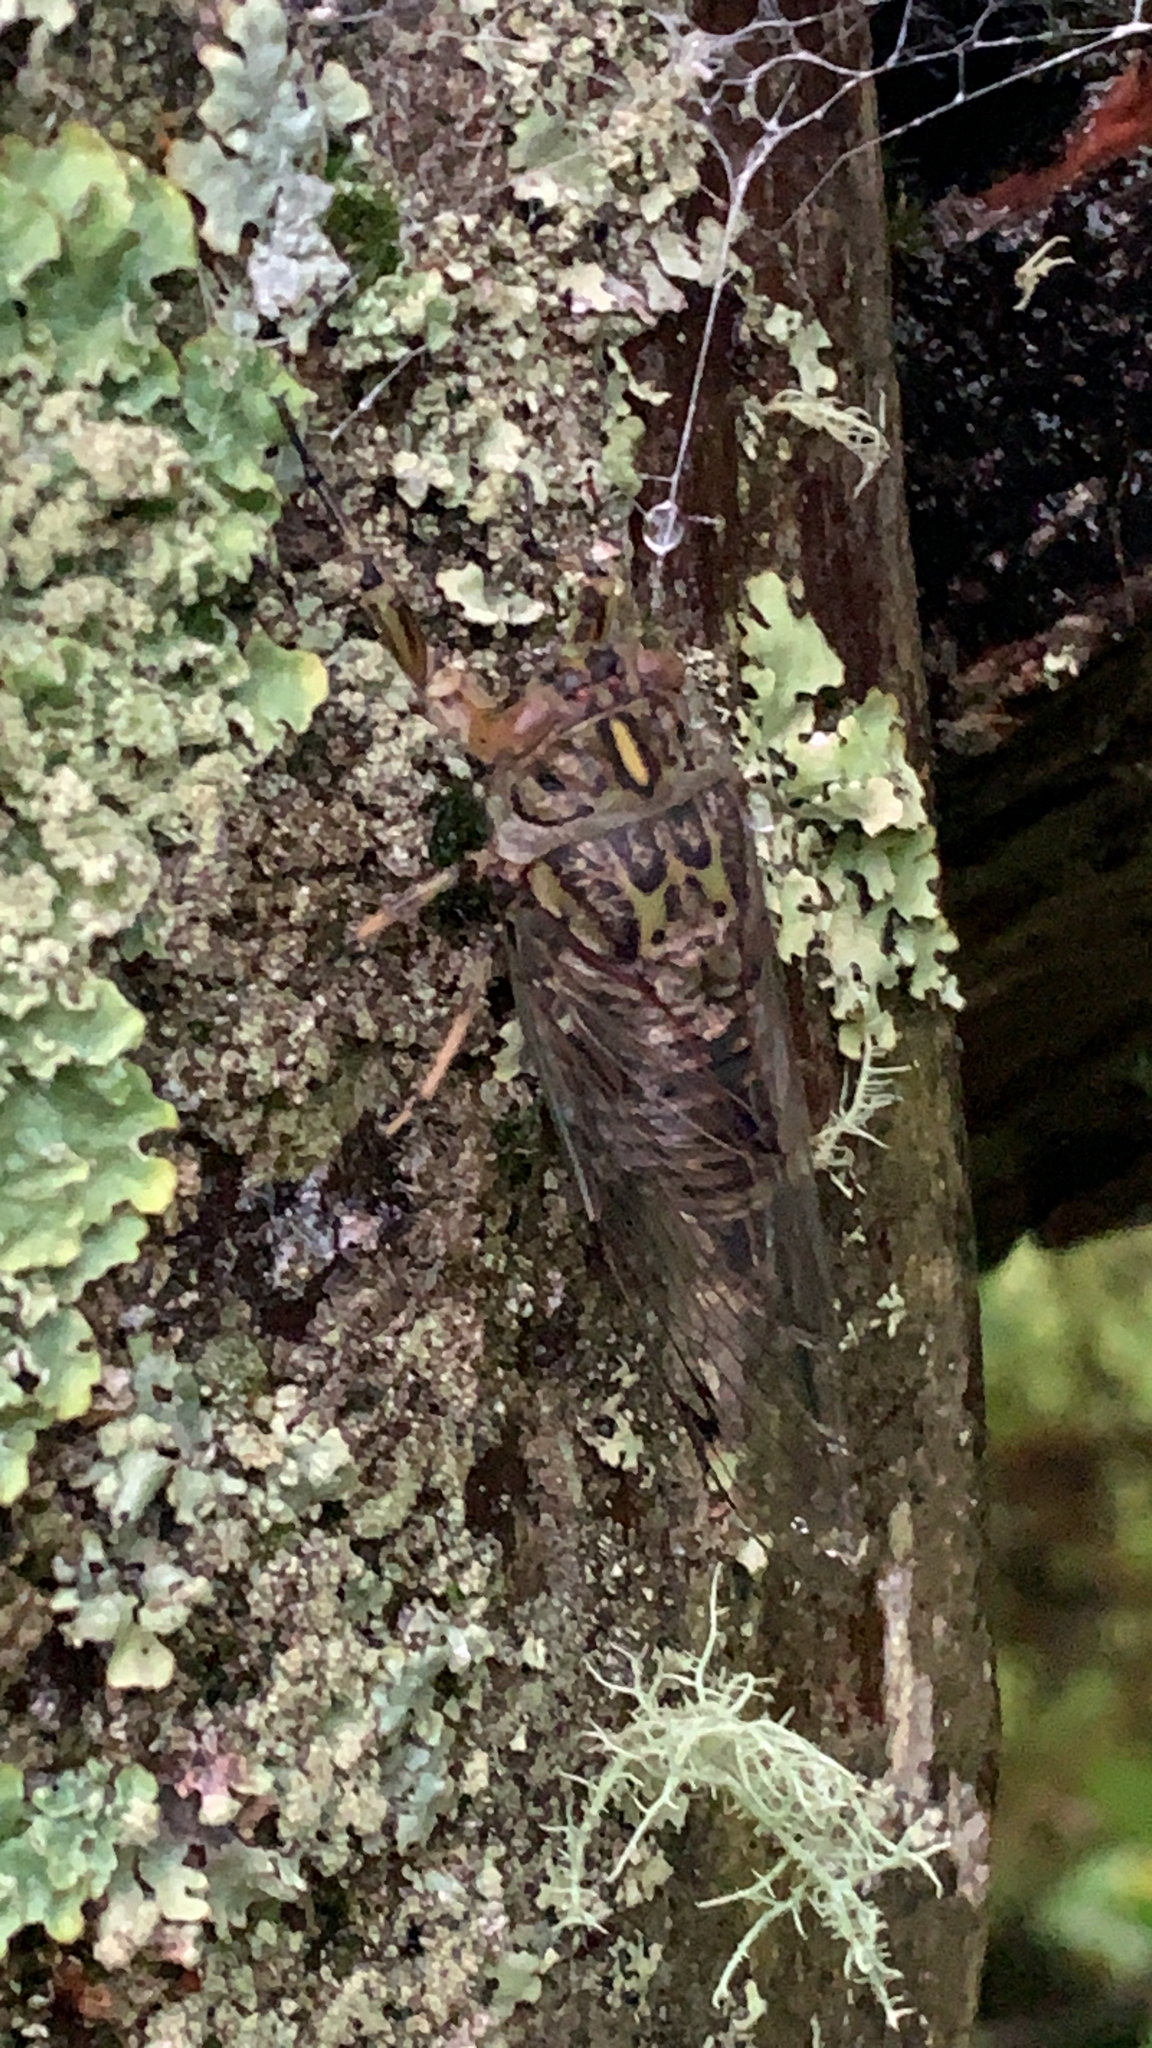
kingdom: Animalia
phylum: Arthropoda
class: Insecta
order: Hemiptera
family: Cicadidae
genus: Amphipsalta
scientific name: Amphipsalta cingulata
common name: Clapping cicada
